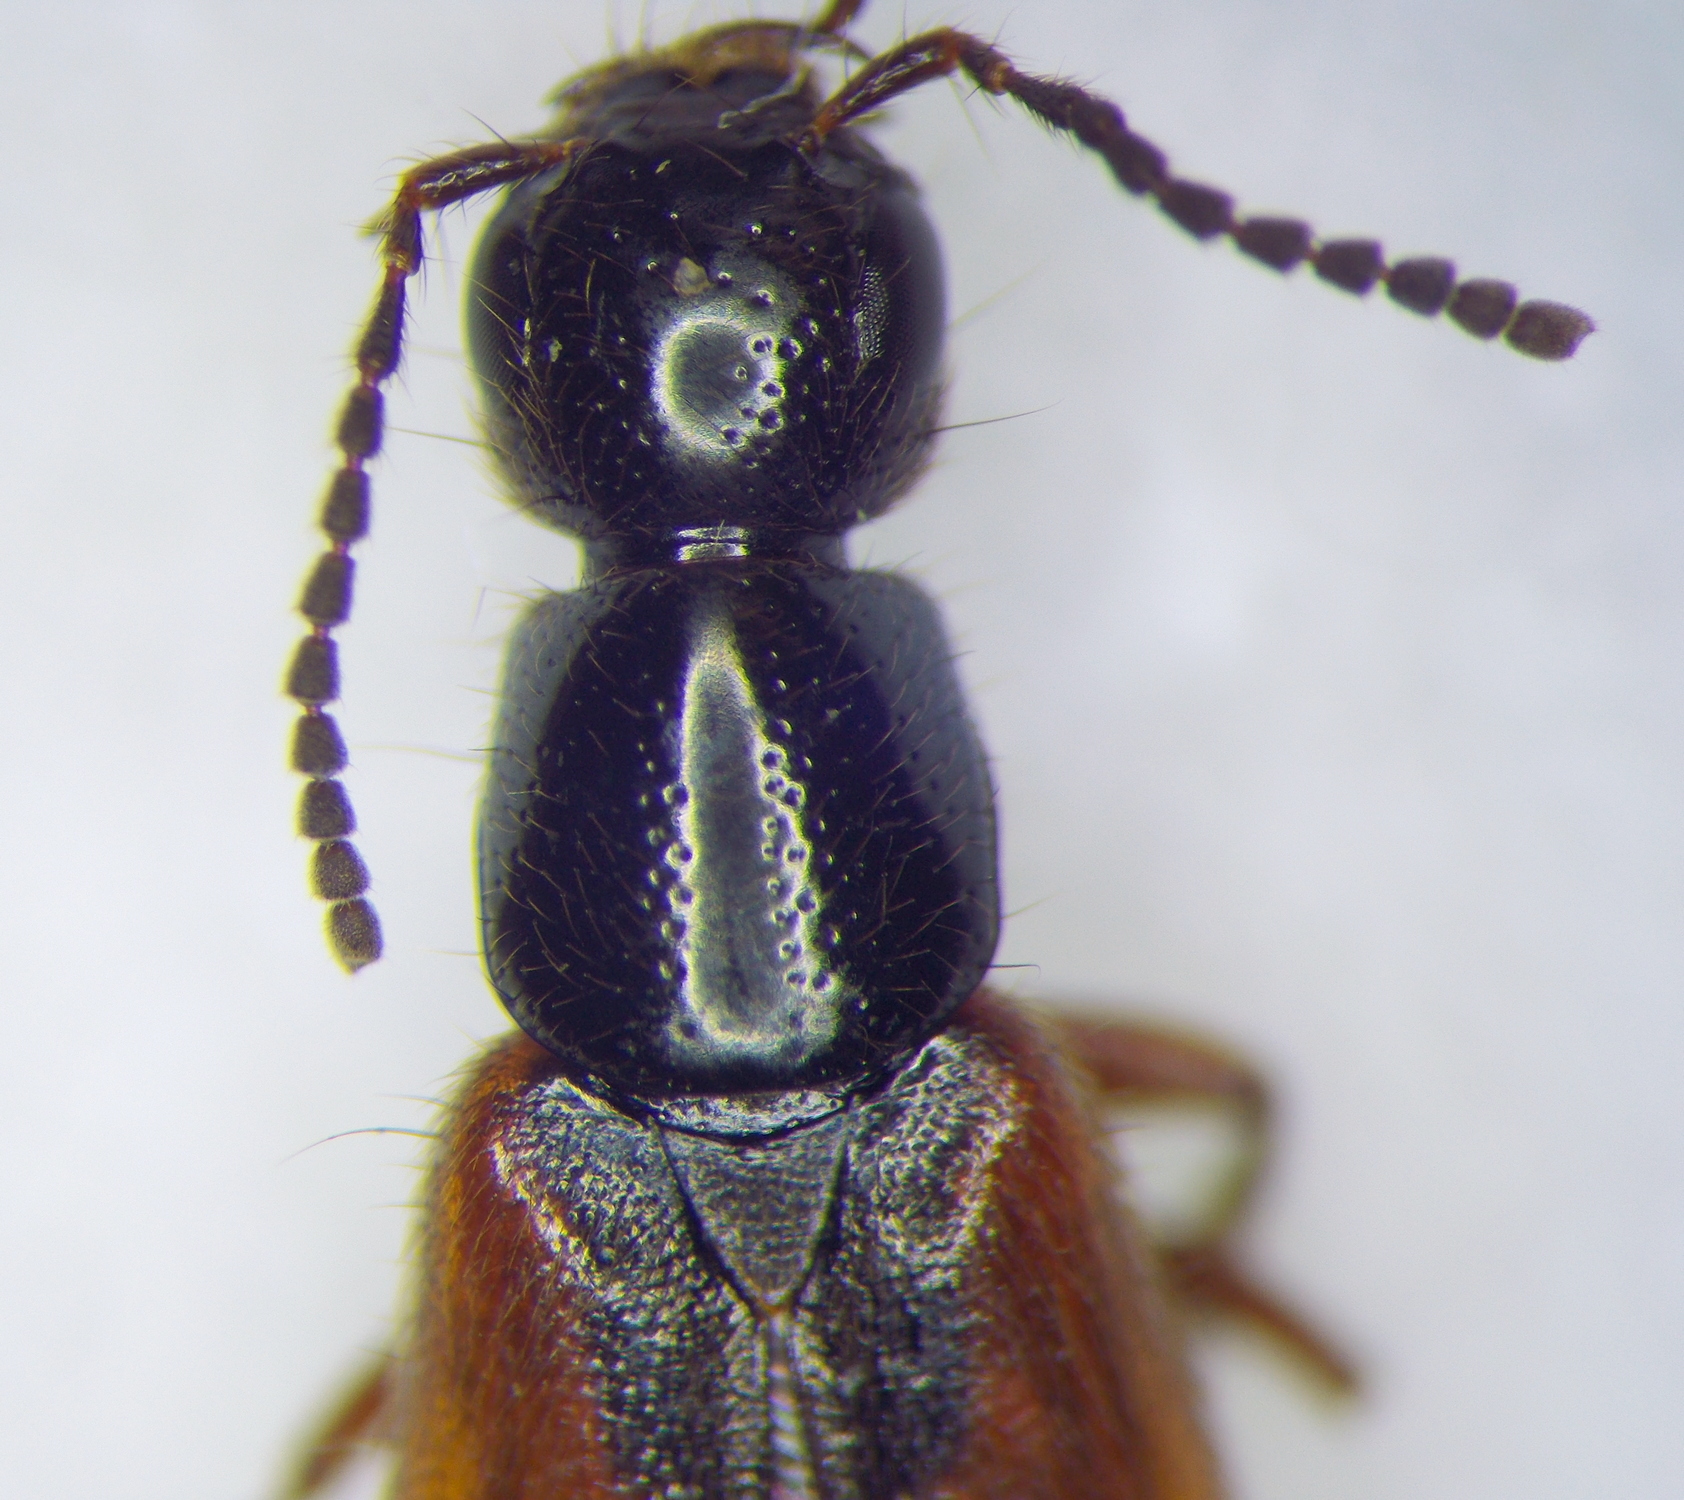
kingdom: Animalia
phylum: Arthropoda
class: Insecta
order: Coleoptera
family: Staphylinidae
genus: Philonthus
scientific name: Philonthus ephippium
